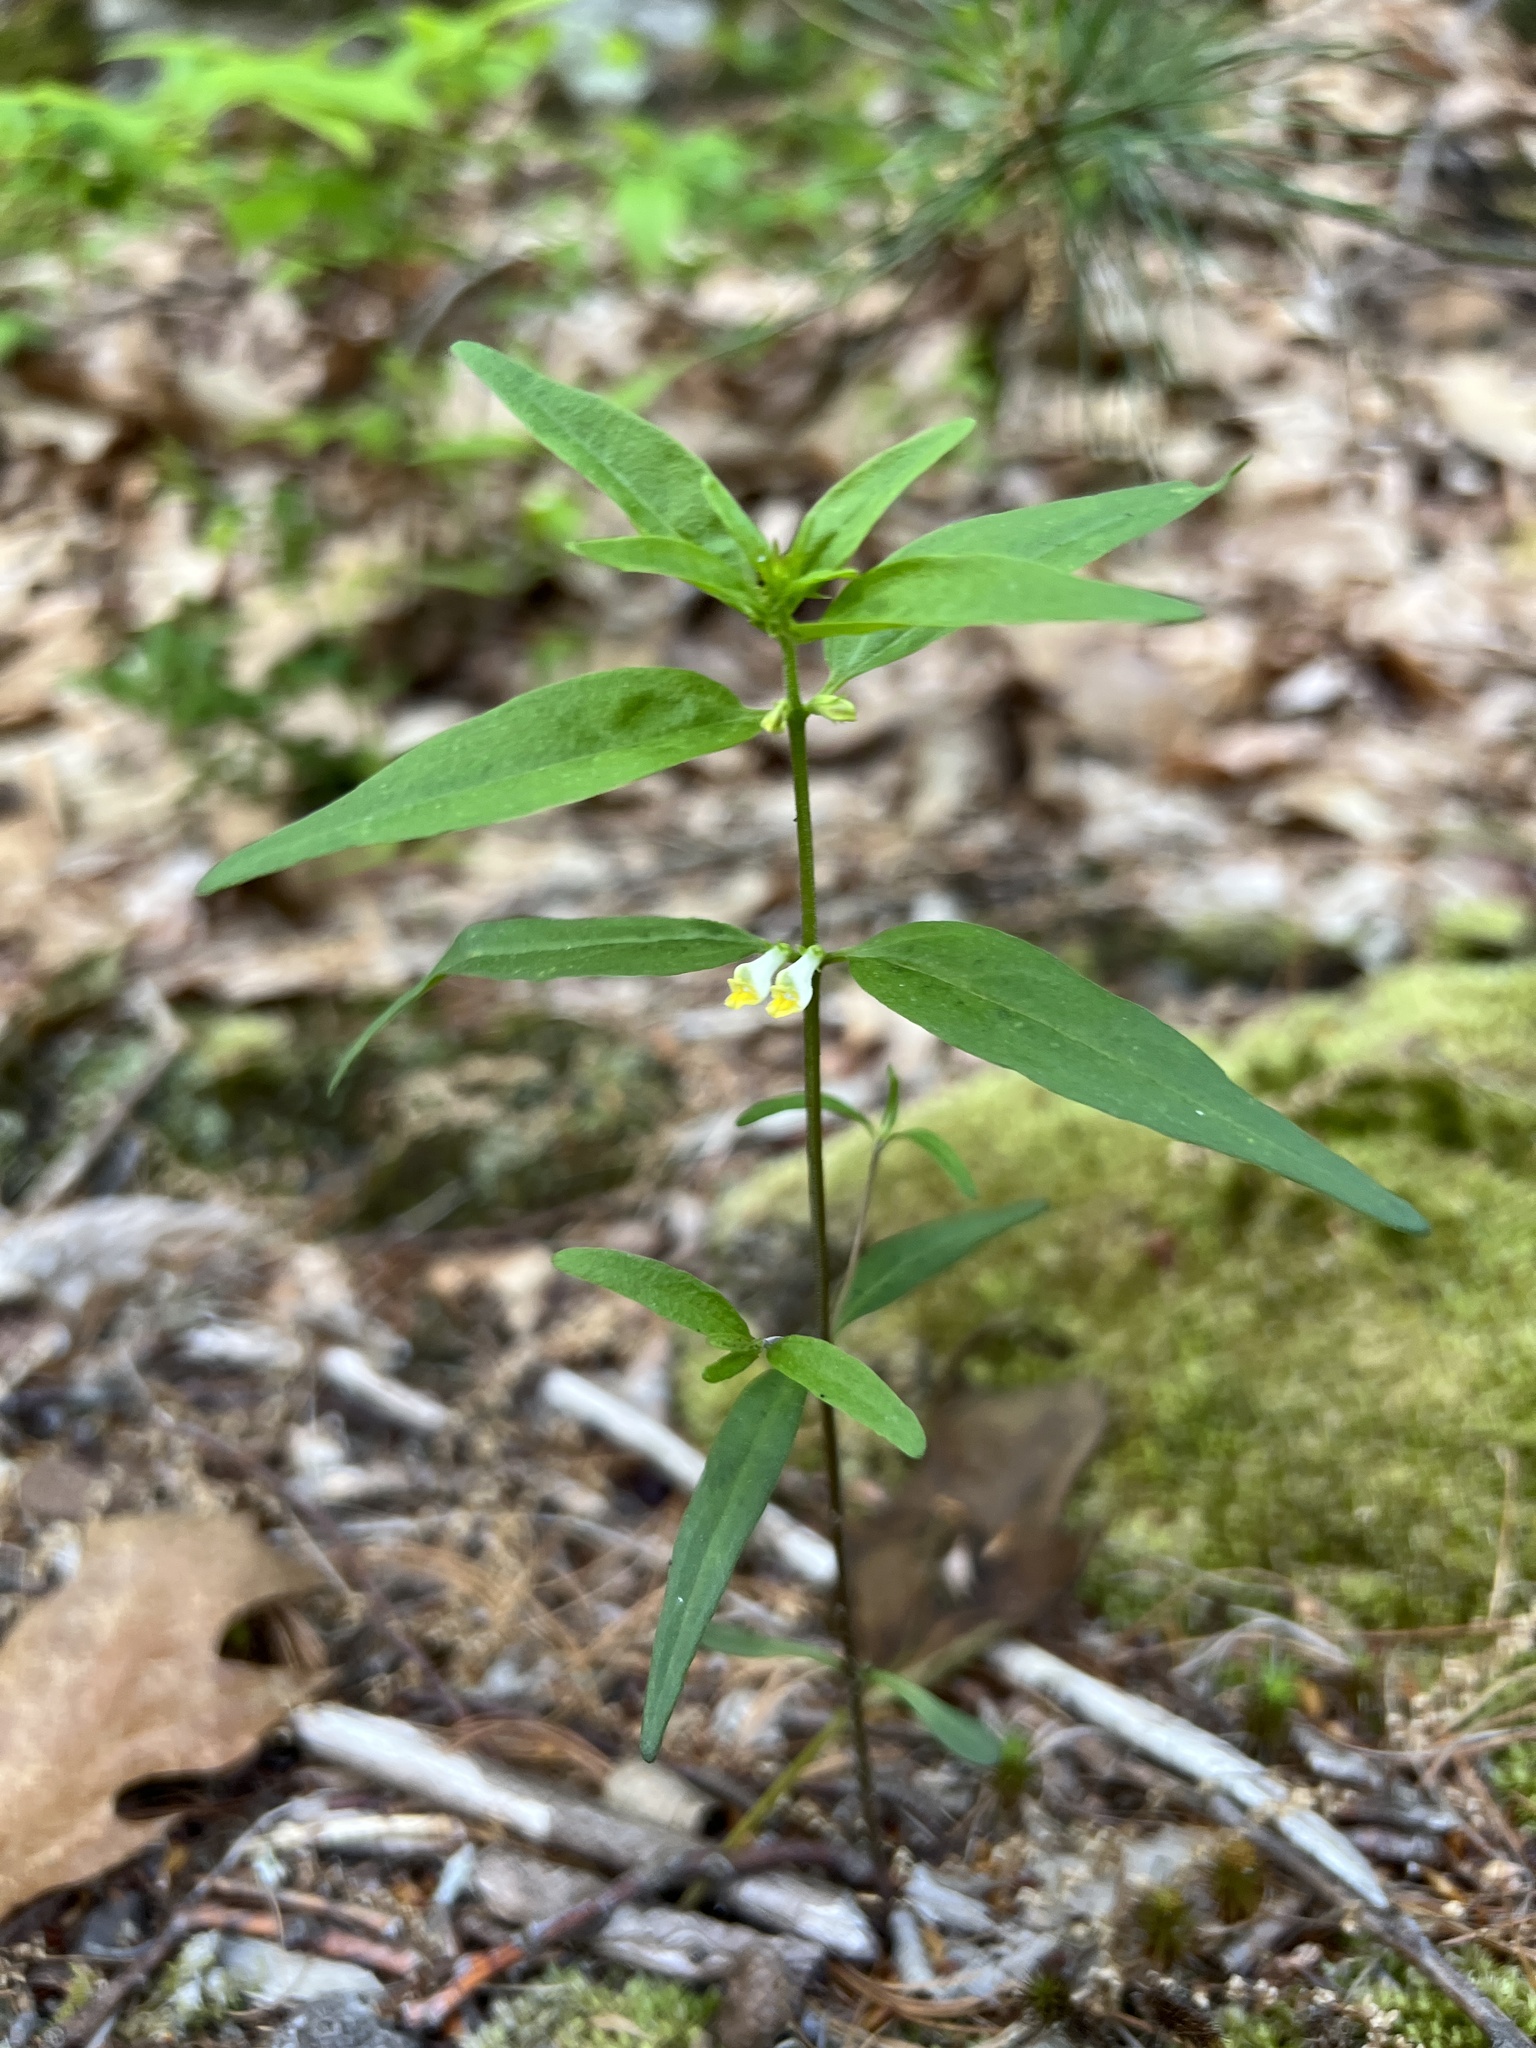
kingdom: Plantae
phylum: Tracheophyta
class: Magnoliopsida
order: Lamiales
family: Orobanchaceae
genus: Melampyrum
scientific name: Melampyrum lineare
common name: American cow-wheat
